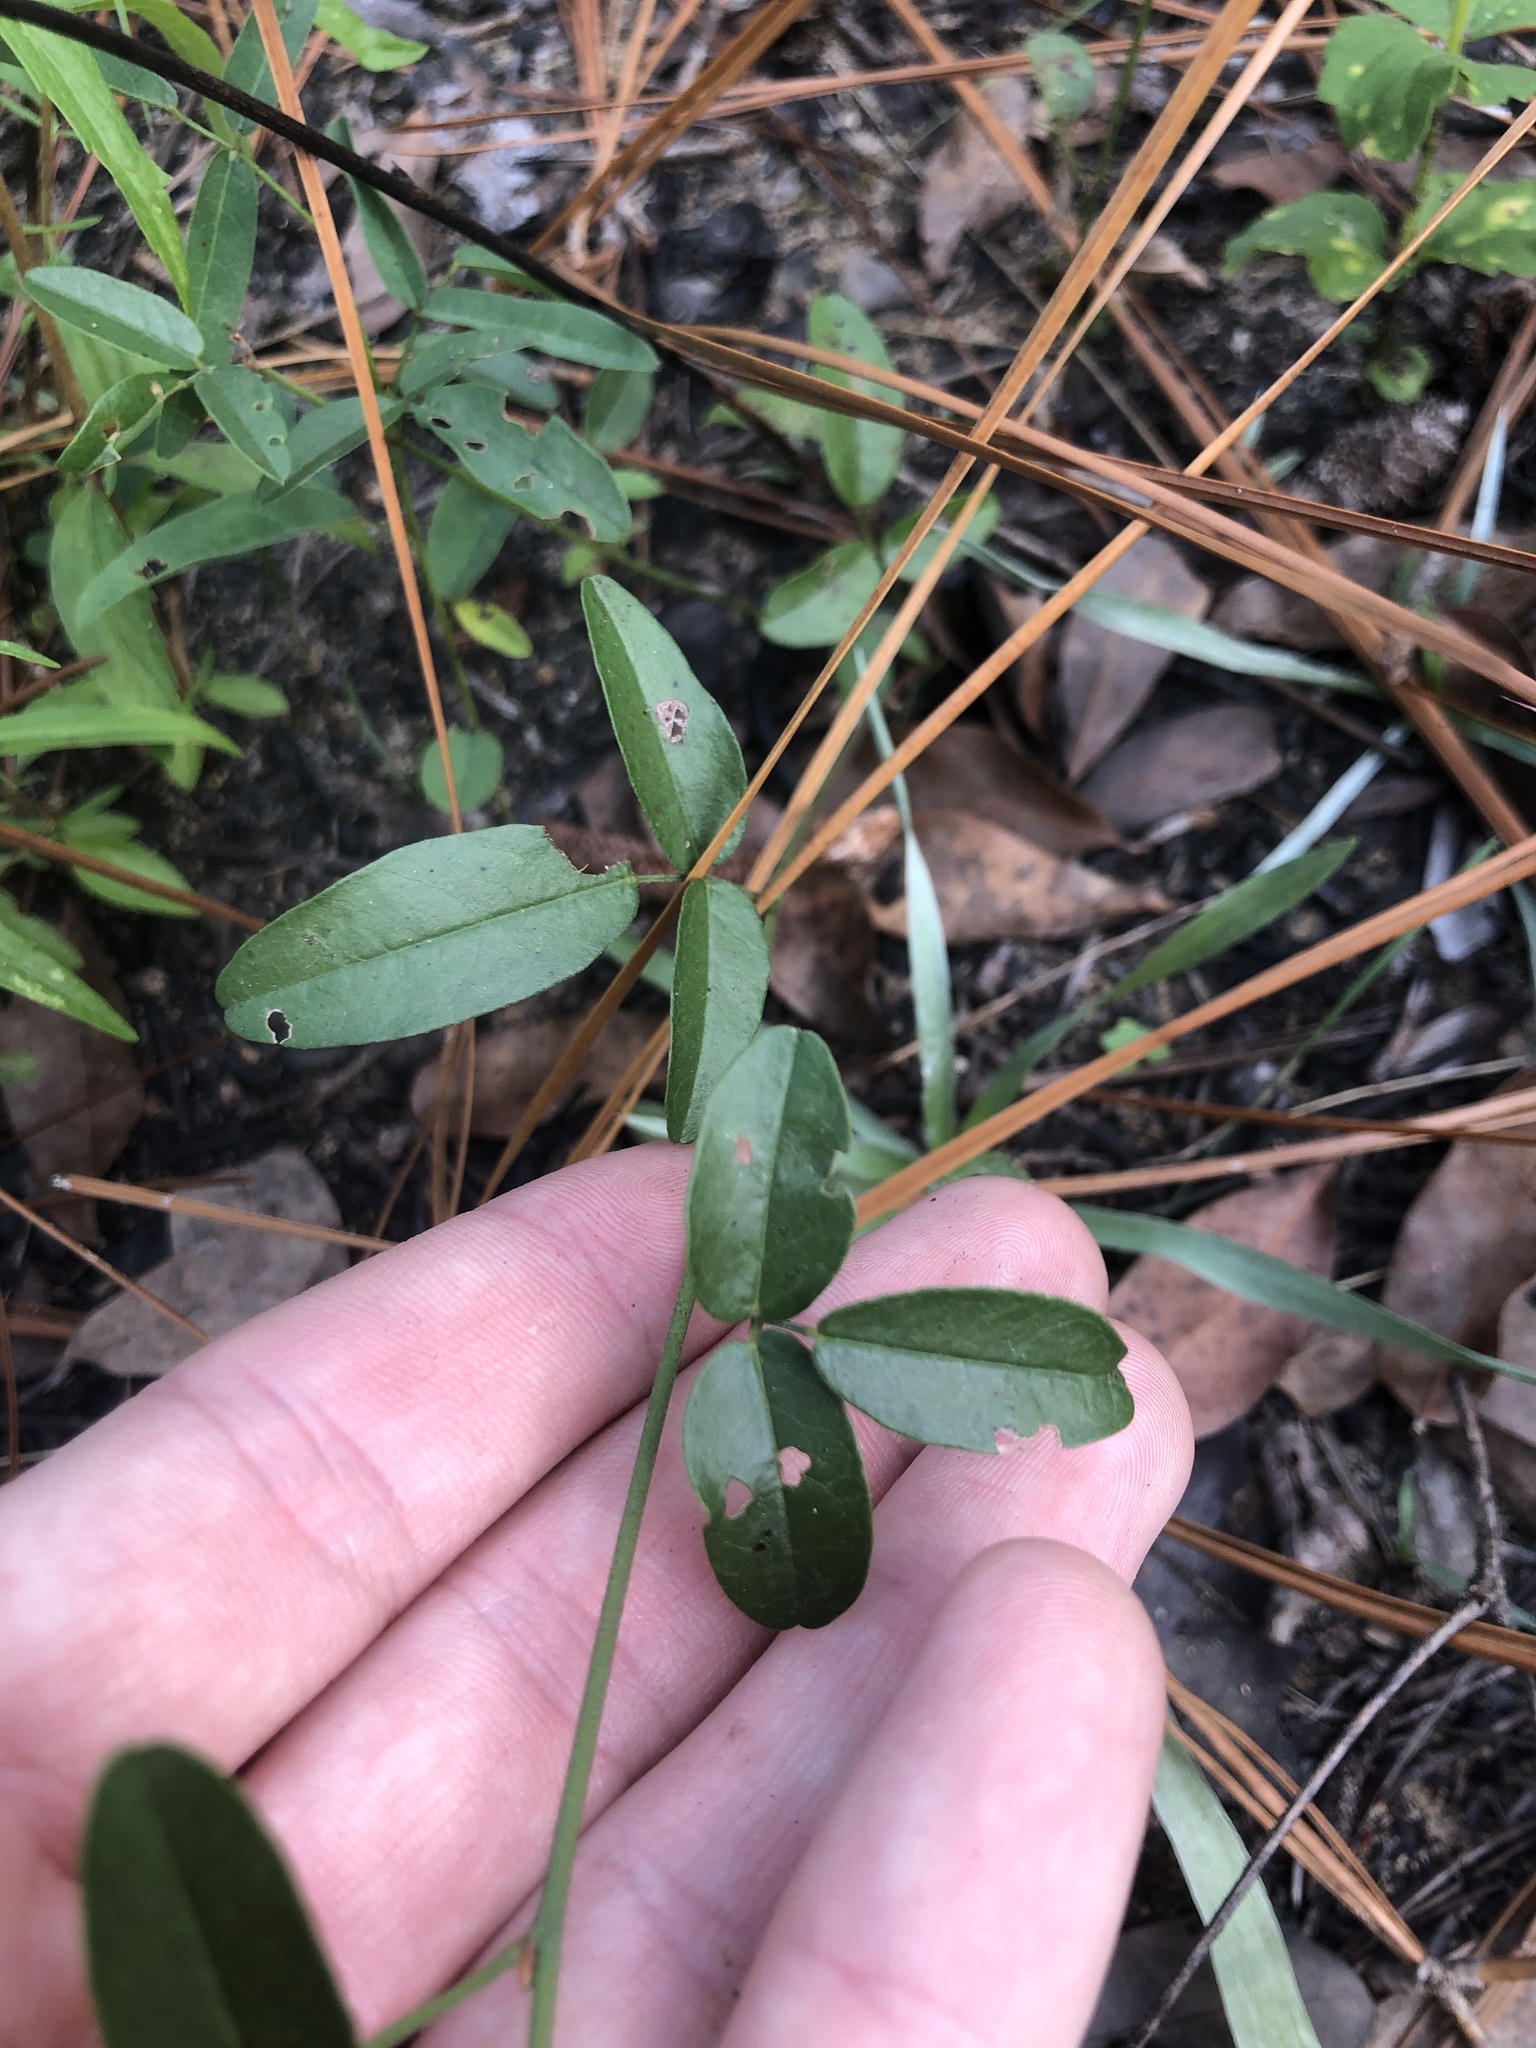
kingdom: Plantae
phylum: Tracheophyta
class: Magnoliopsida
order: Fabales
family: Fabaceae
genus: Galactia
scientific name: Galactia erecta
